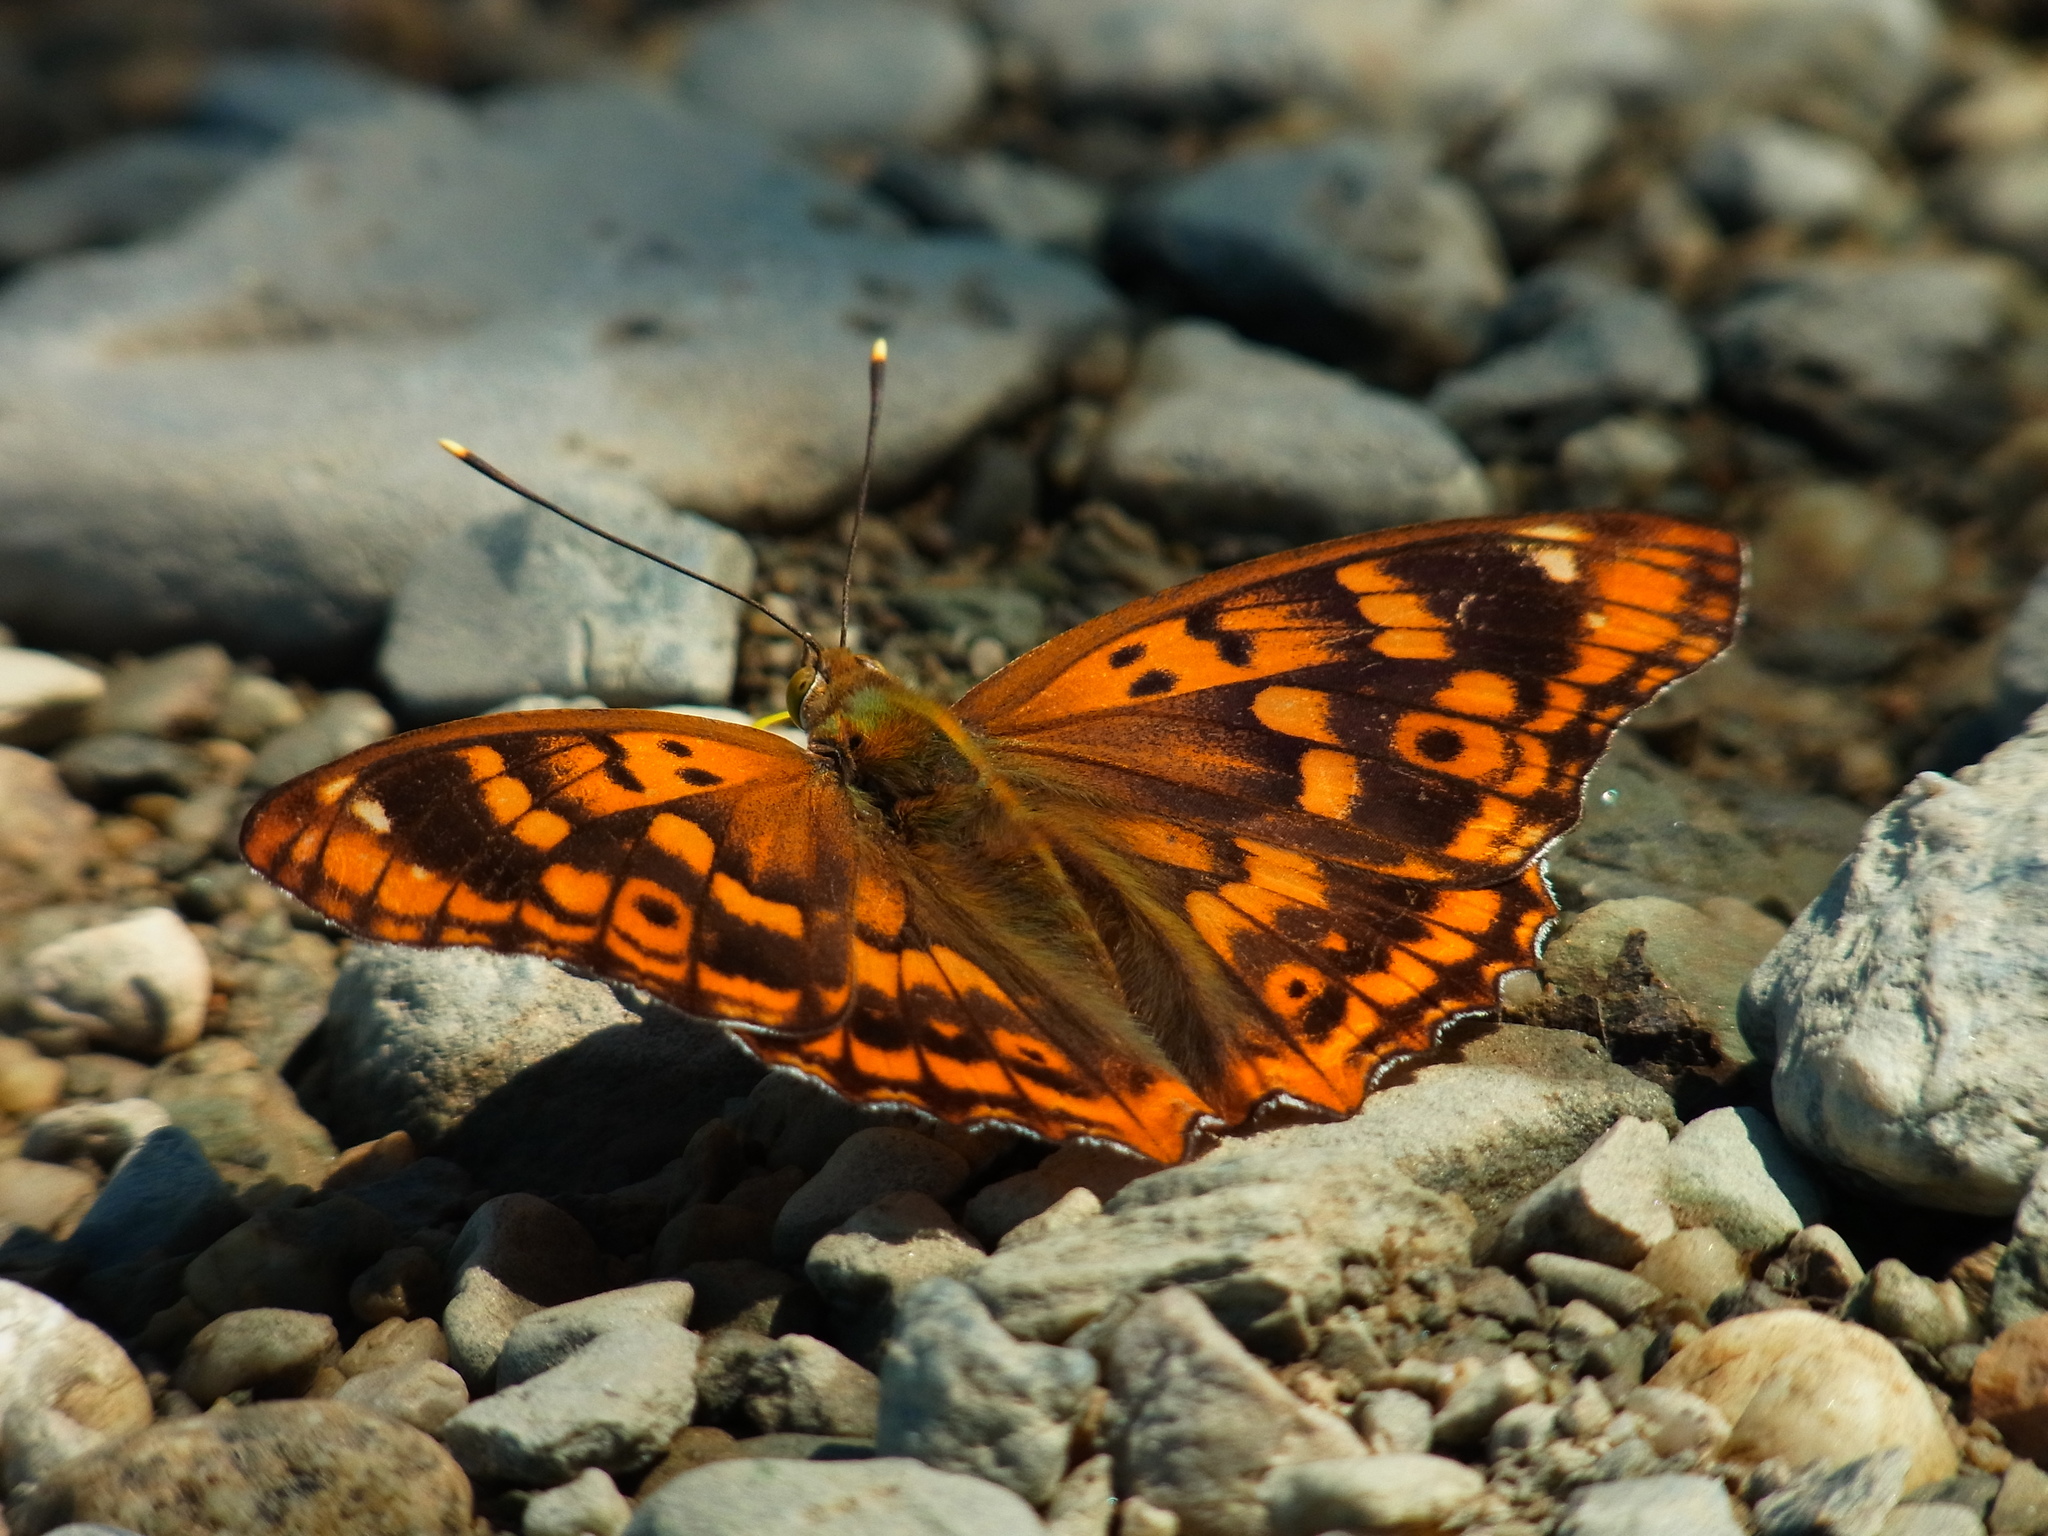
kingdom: Animalia
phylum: Arthropoda
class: Insecta
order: Lepidoptera
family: Nymphalidae
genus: Apatura
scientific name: Apatura ilia
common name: Lesser purple emperor
